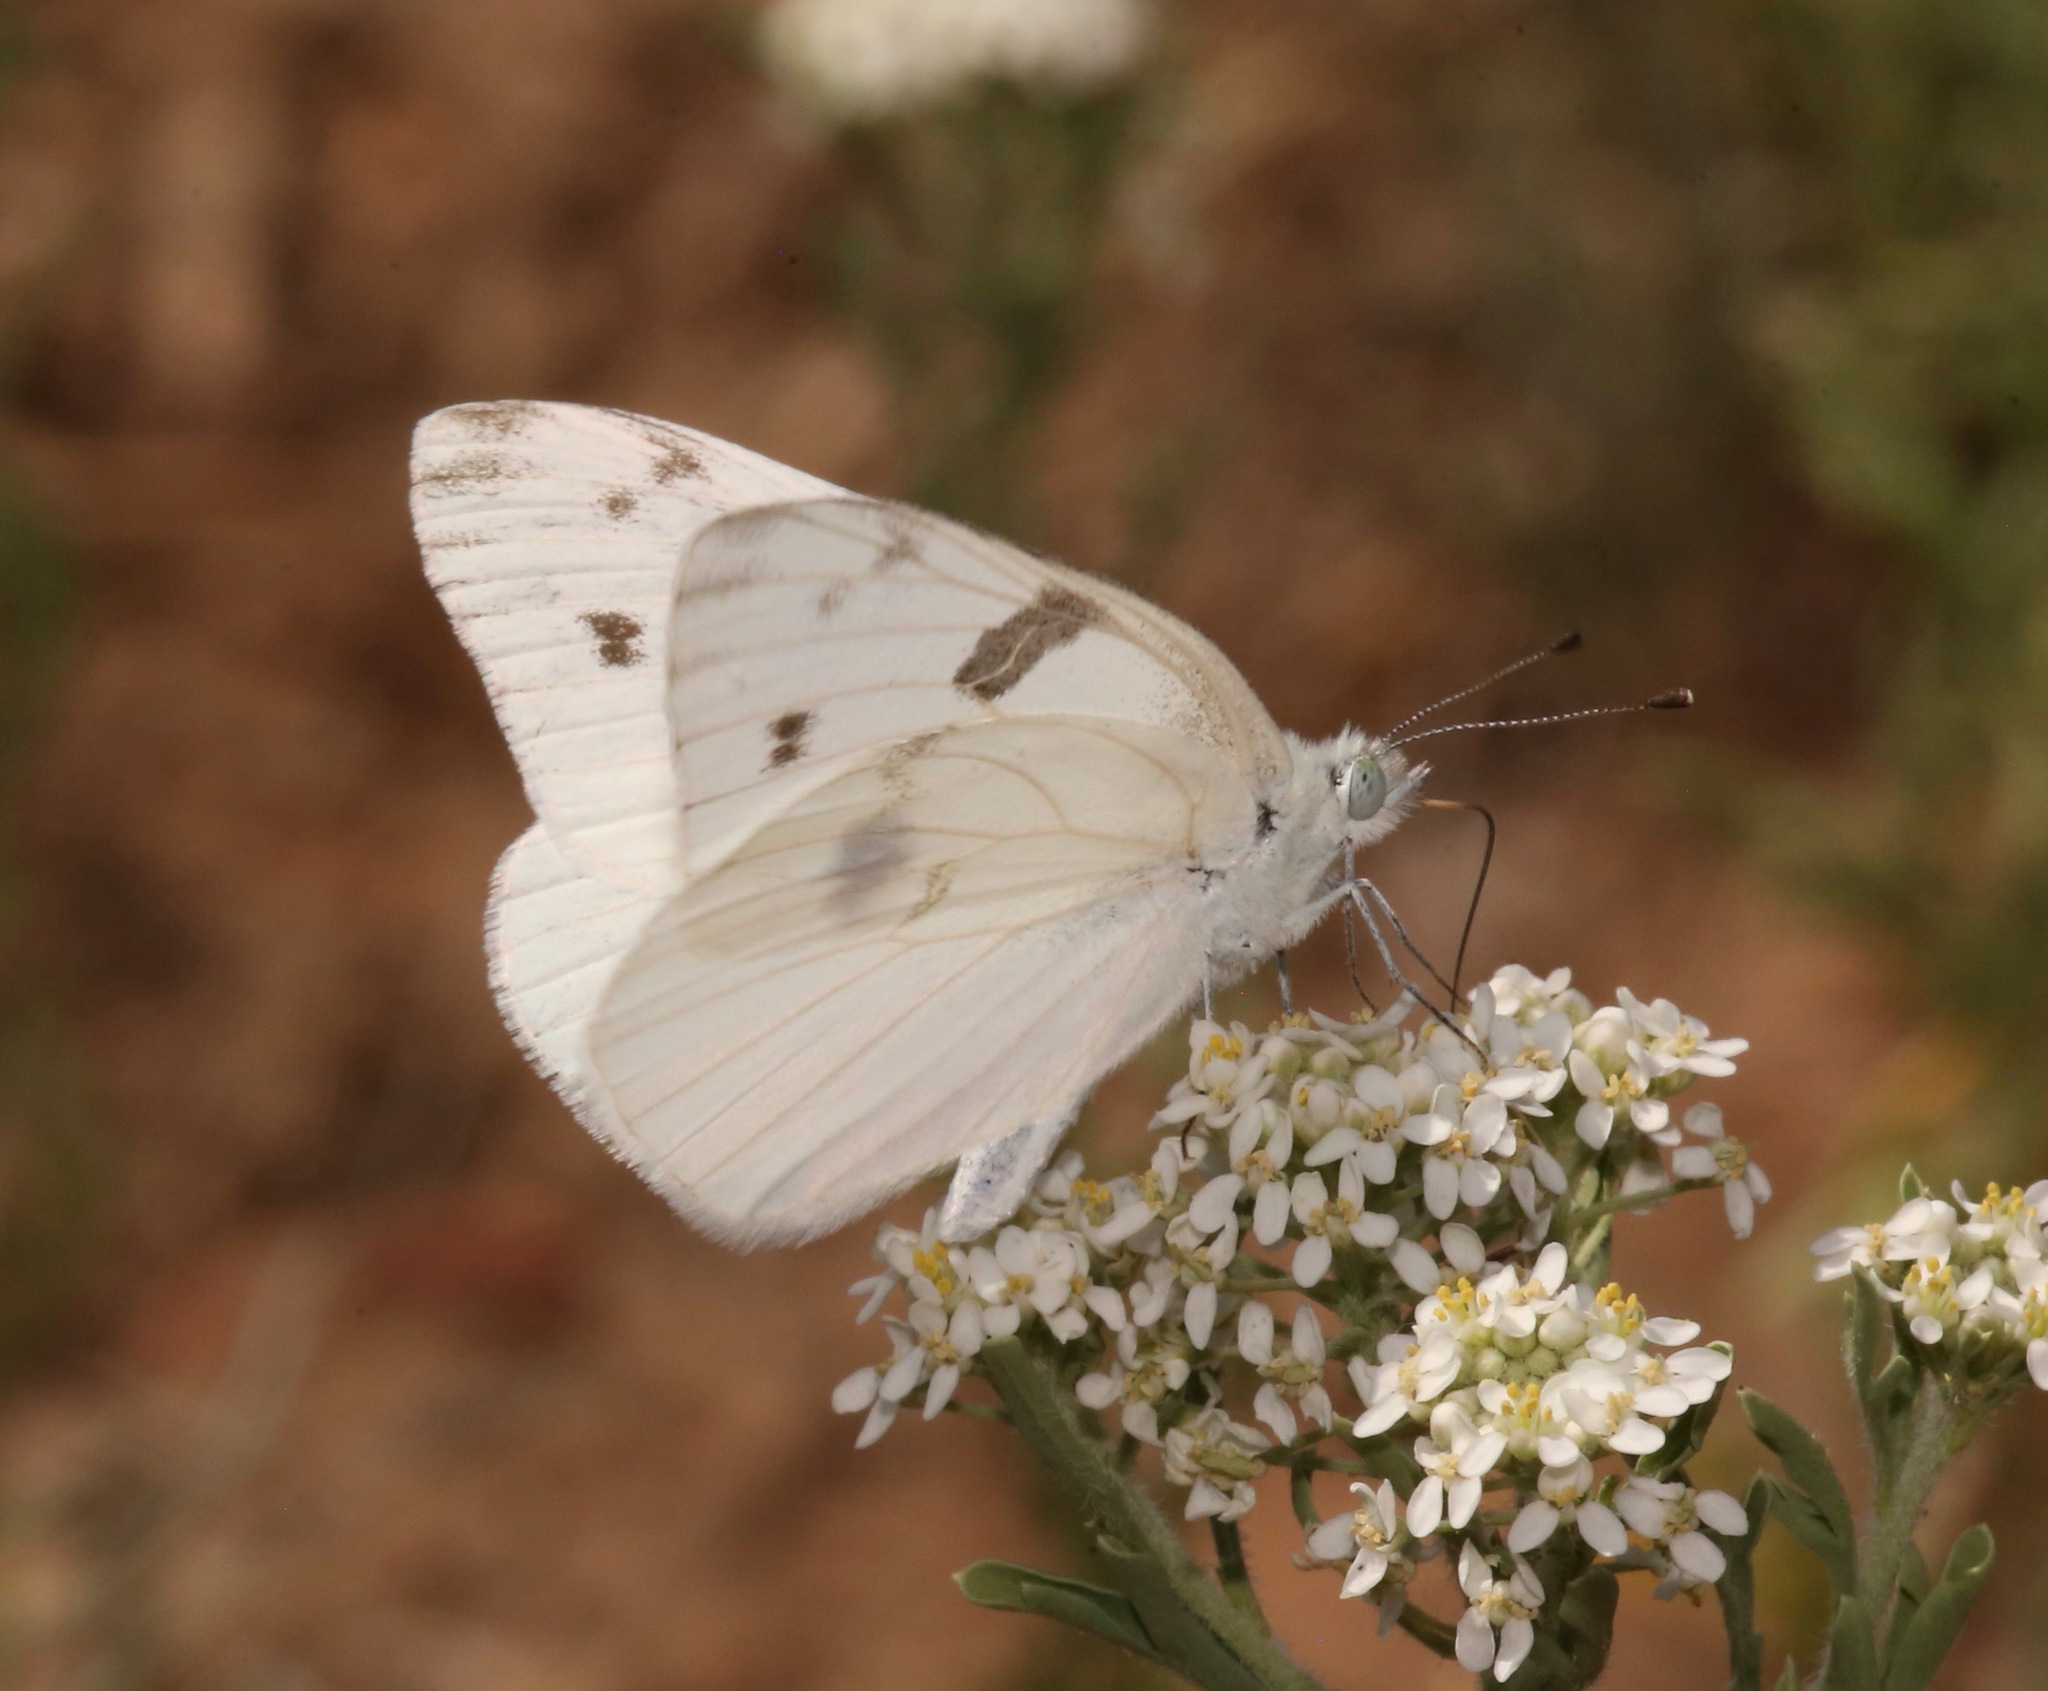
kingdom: Animalia
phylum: Arthropoda
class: Insecta
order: Lepidoptera
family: Pieridae
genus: Pontia
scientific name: Pontia protodice
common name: Checkered white
